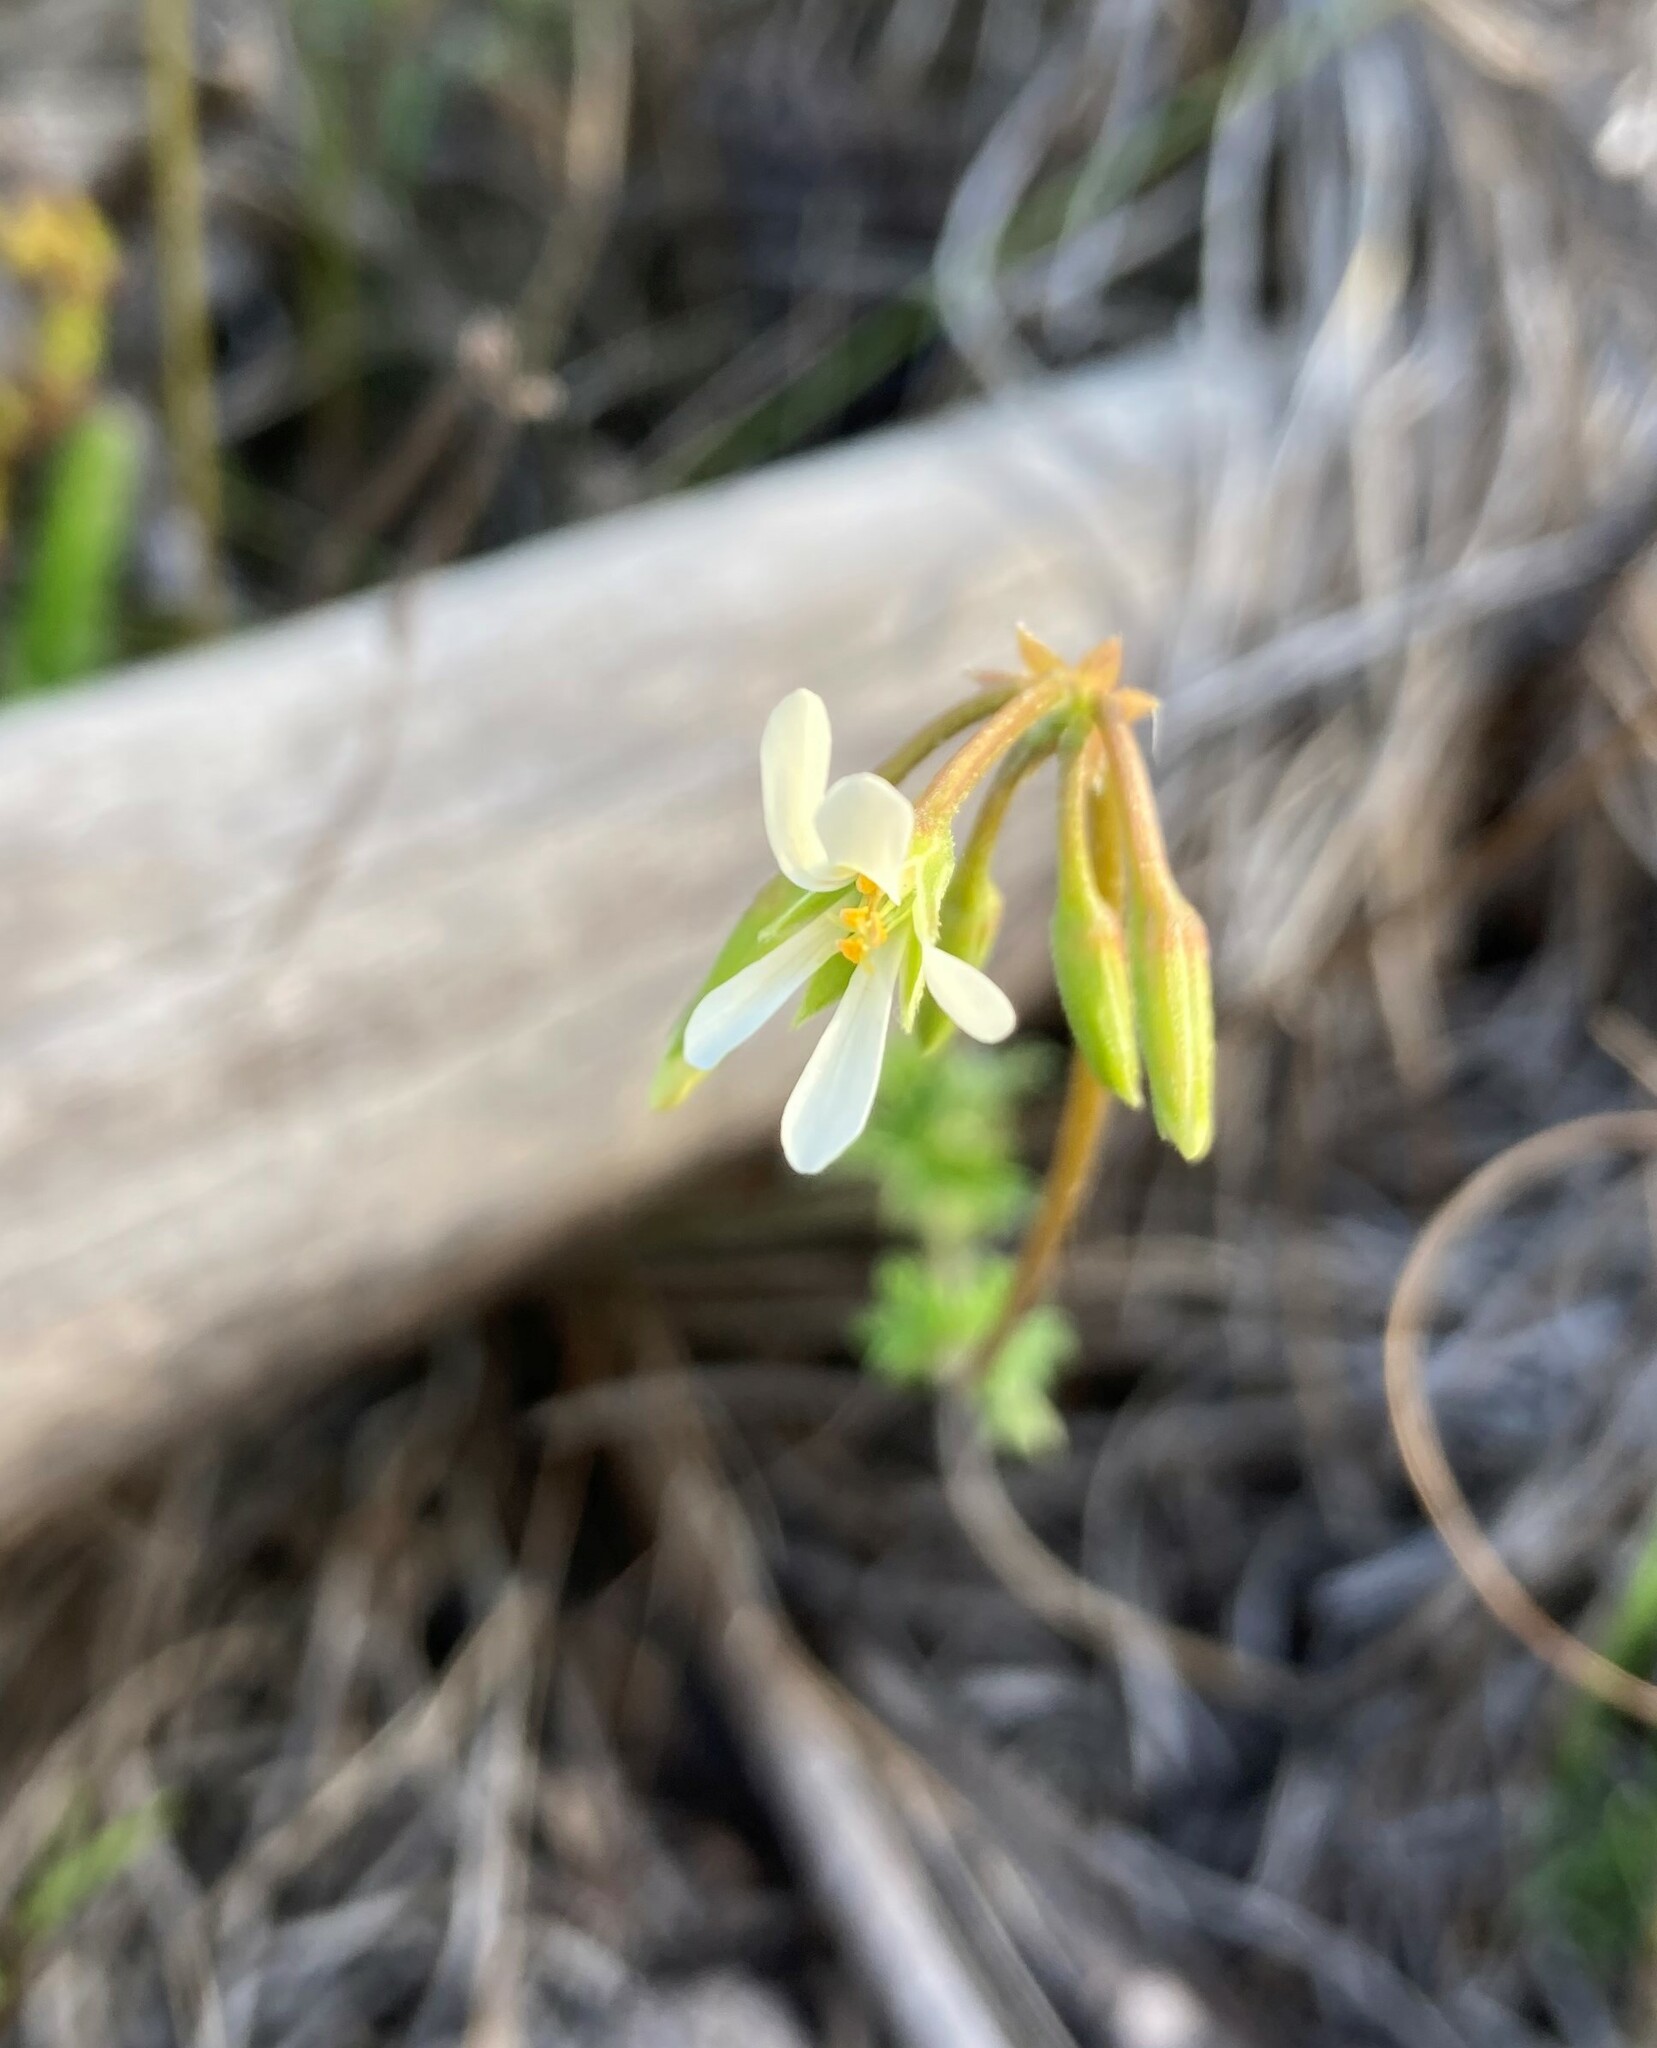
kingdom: Plantae
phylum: Tracheophyta
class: Magnoliopsida
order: Geraniales
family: Geraniaceae
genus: Pelargonium
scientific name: Pelargonium alchemilloides
